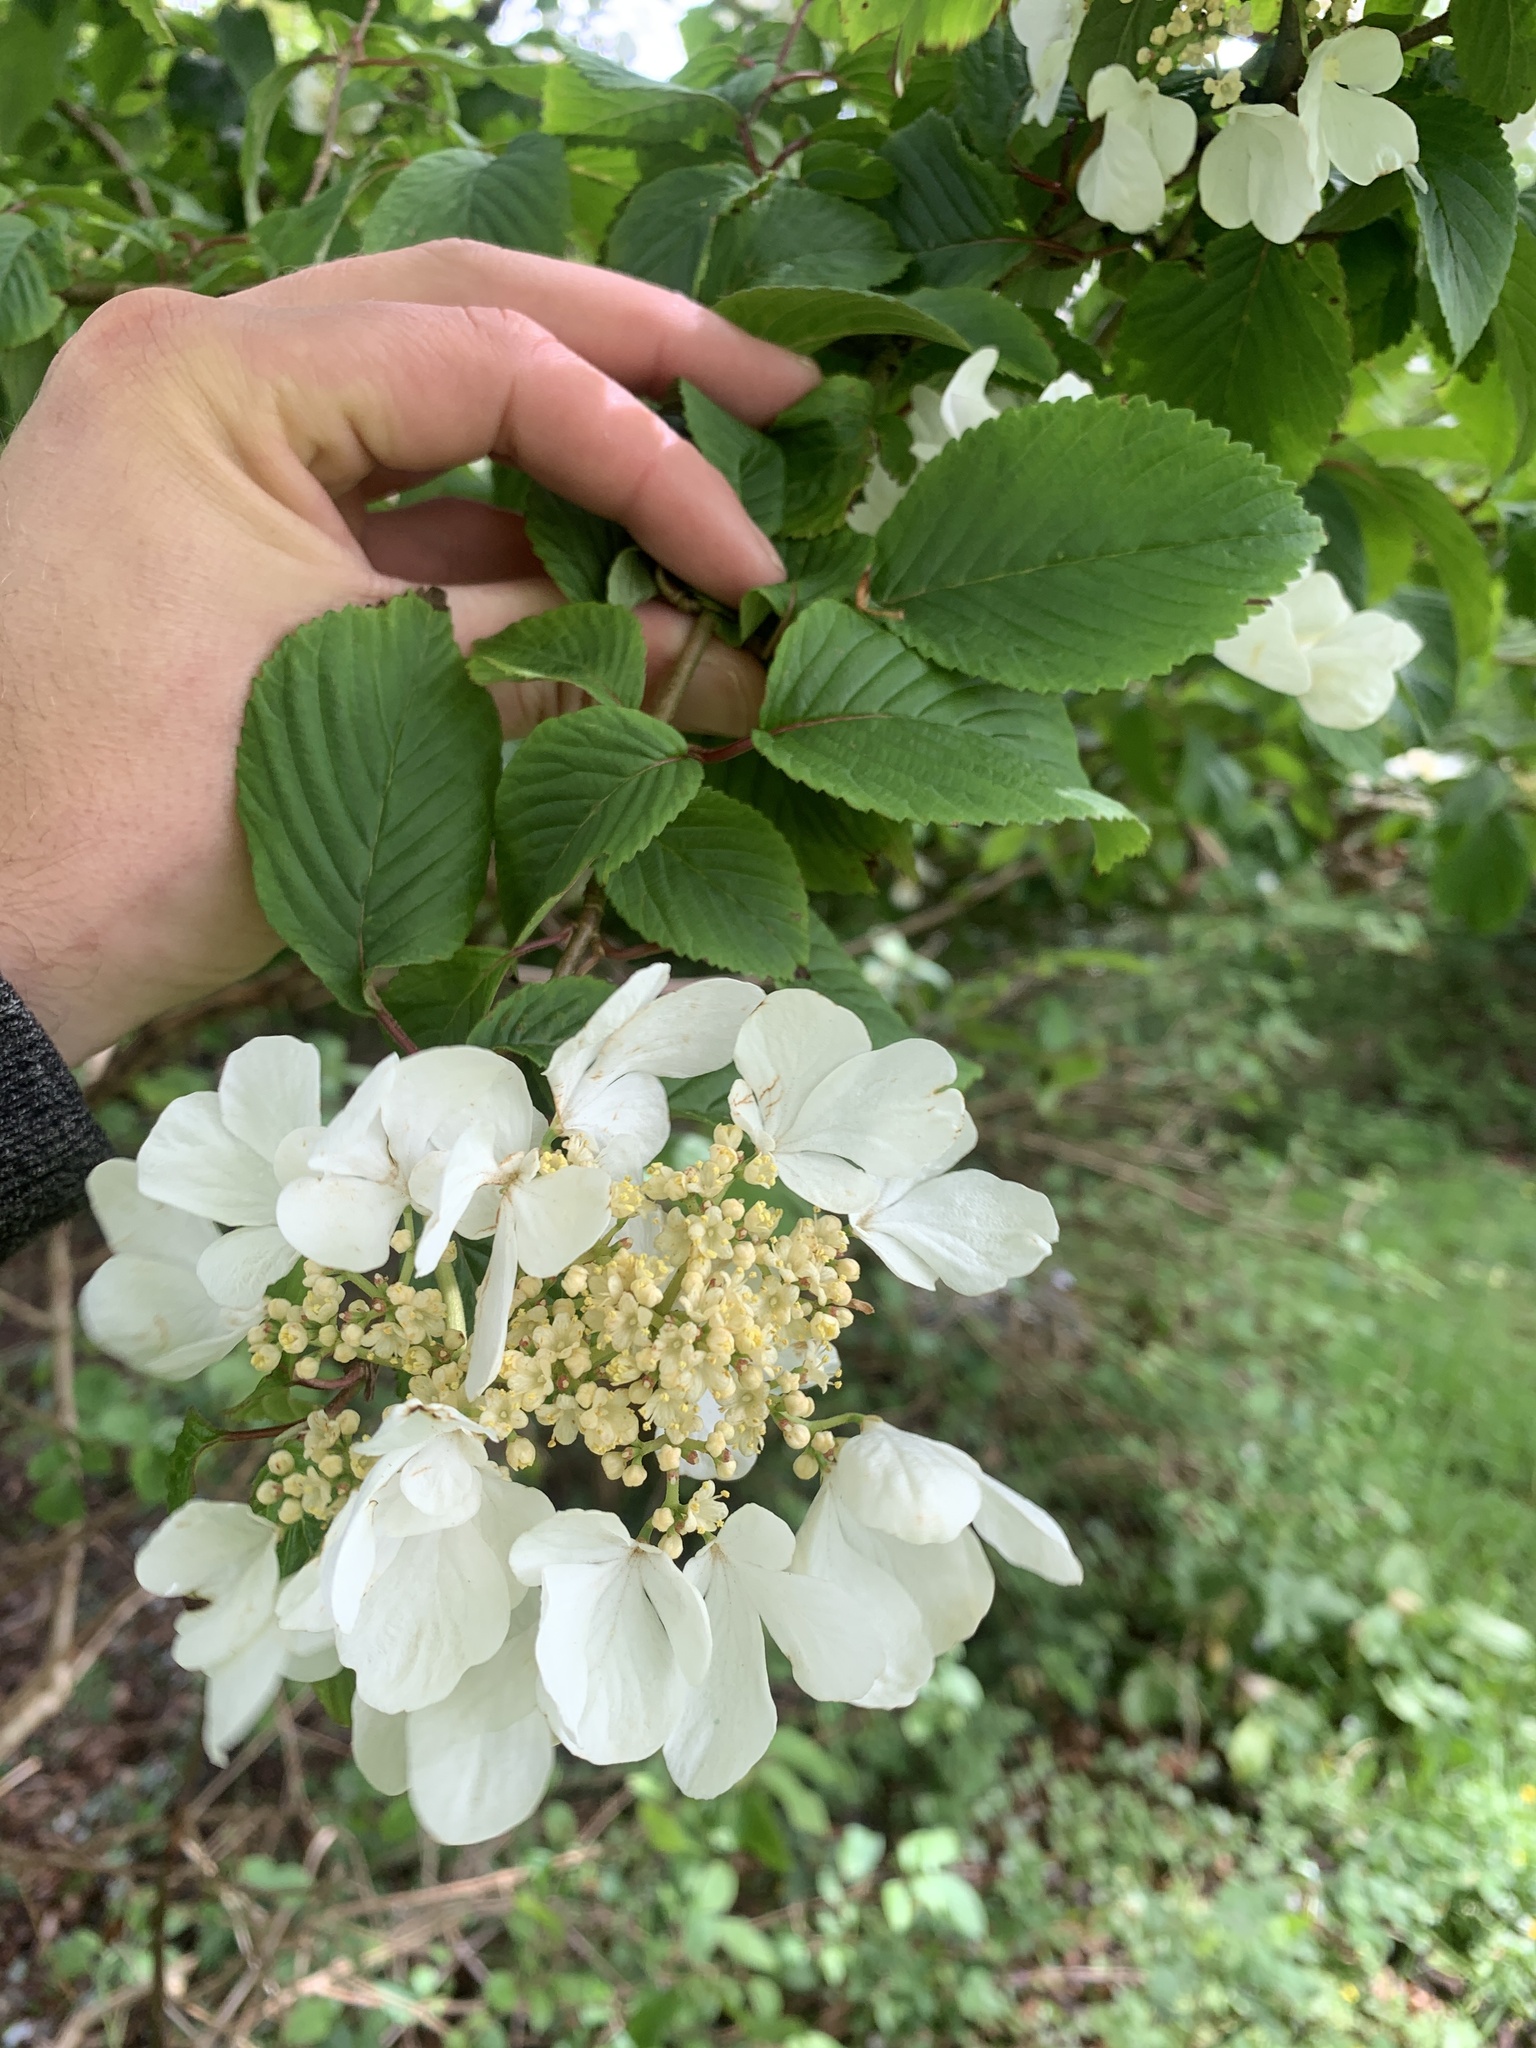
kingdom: Plantae
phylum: Tracheophyta
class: Magnoliopsida
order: Dipsacales
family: Viburnaceae
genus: Viburnum
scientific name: Viburnum plicatum
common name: Japanese snowball
